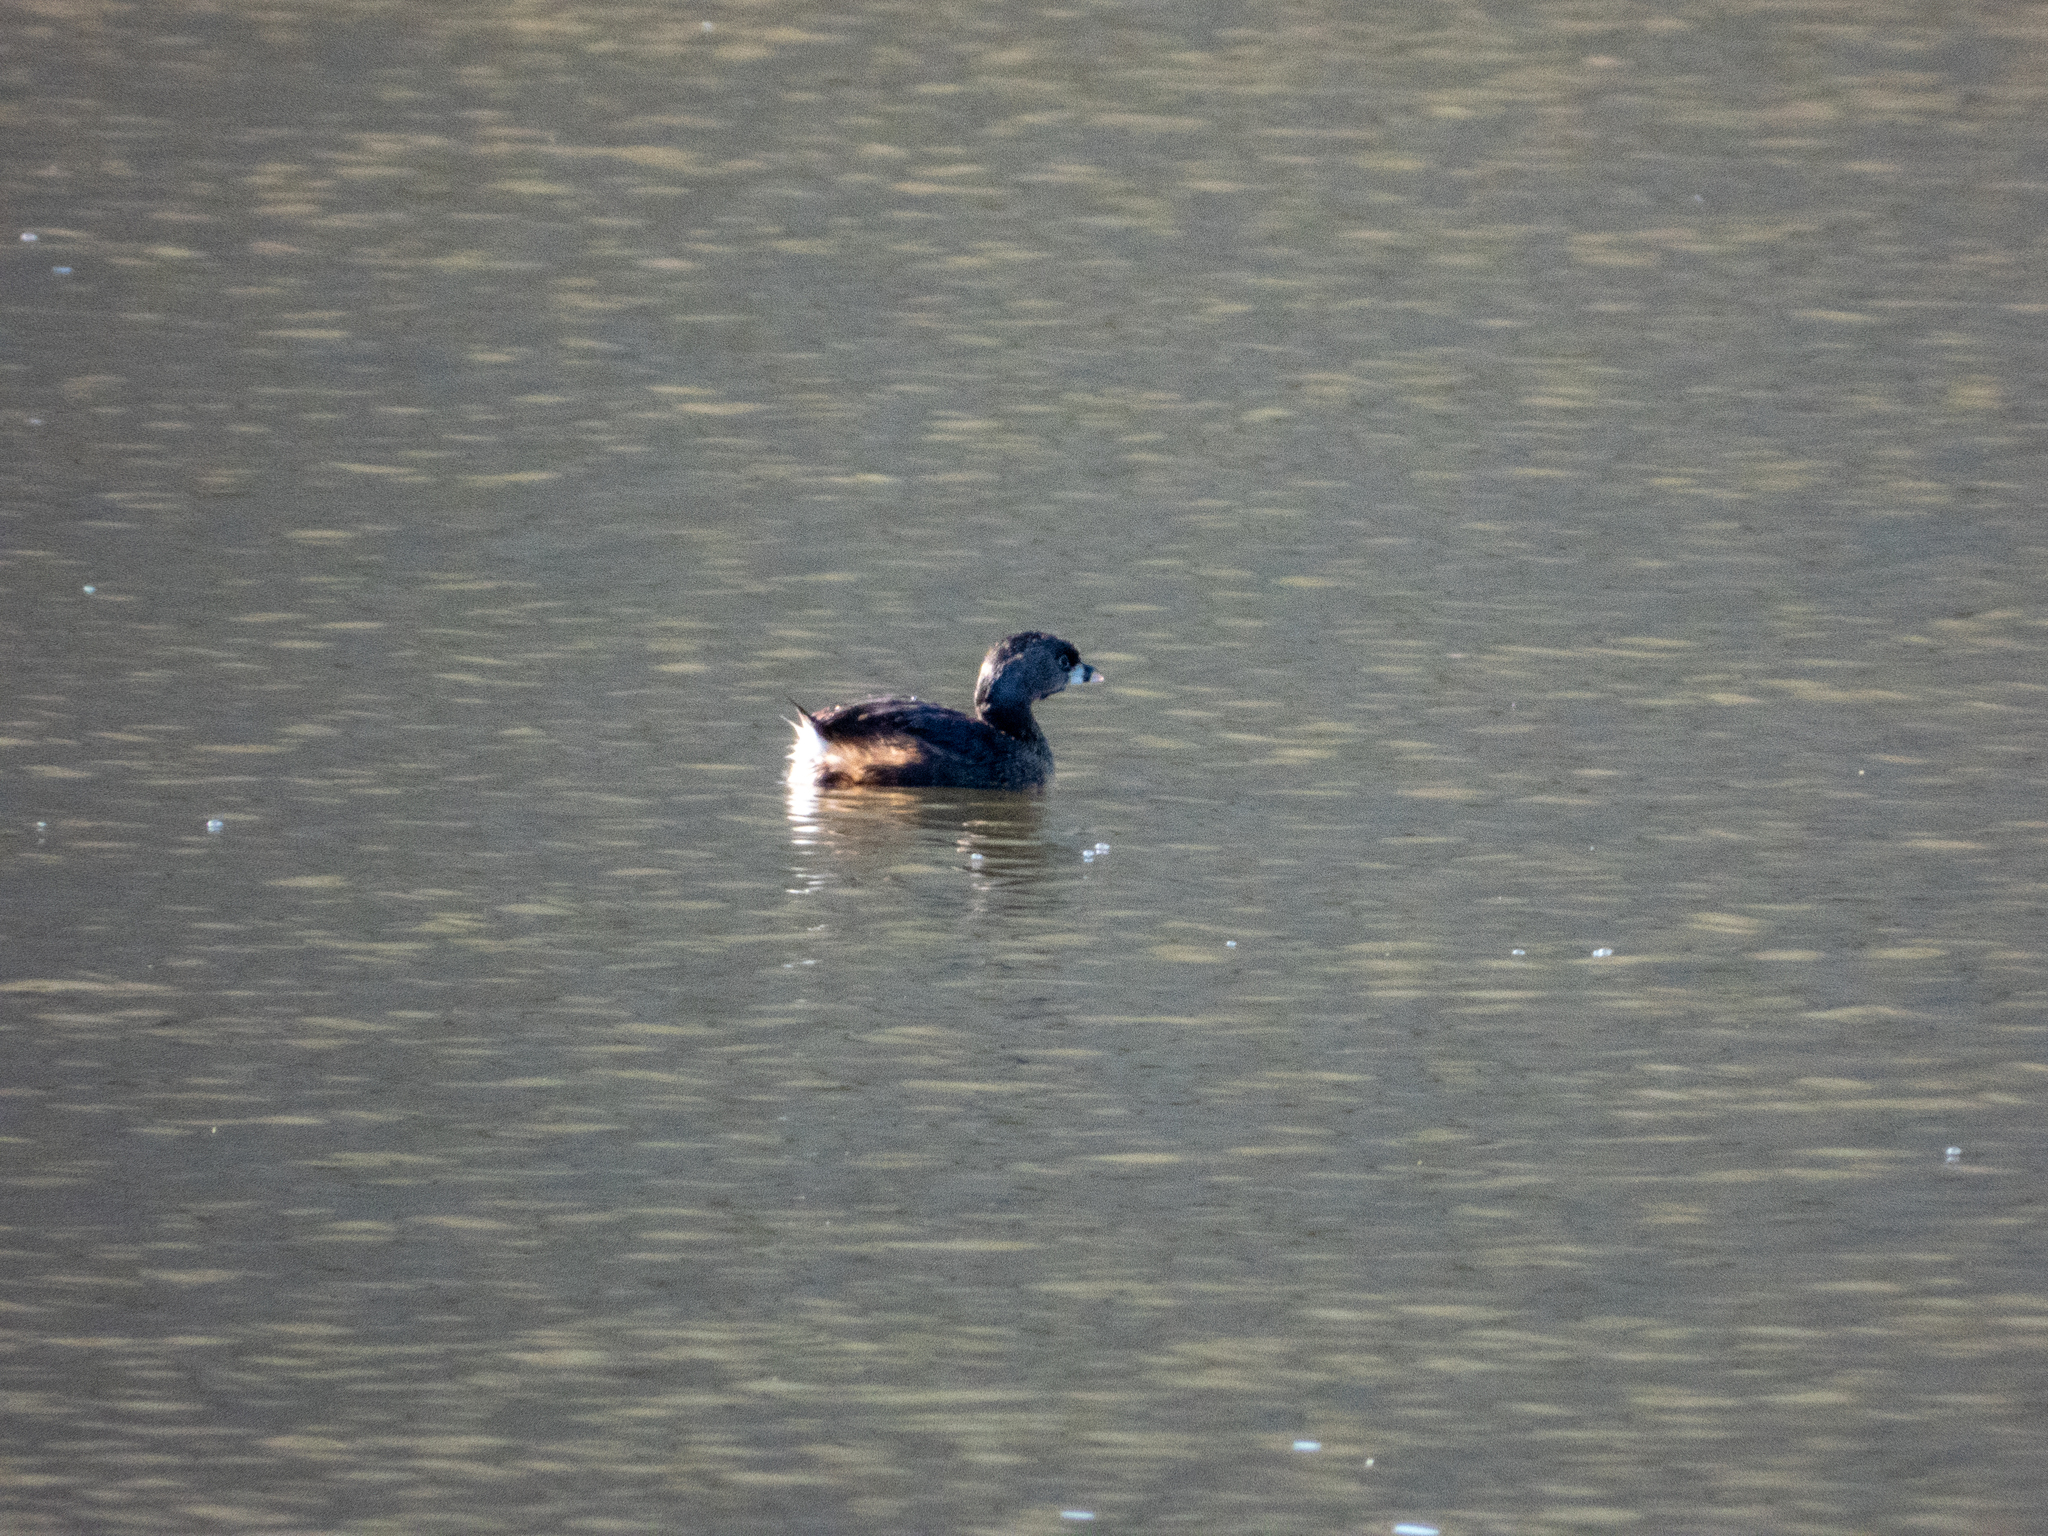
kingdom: Animalia
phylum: Chordata
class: Aves
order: Podicipediformes
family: Podicipedidae
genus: Podilymbus
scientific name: Podilymbus podiceps
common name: Pied-billed grebe
